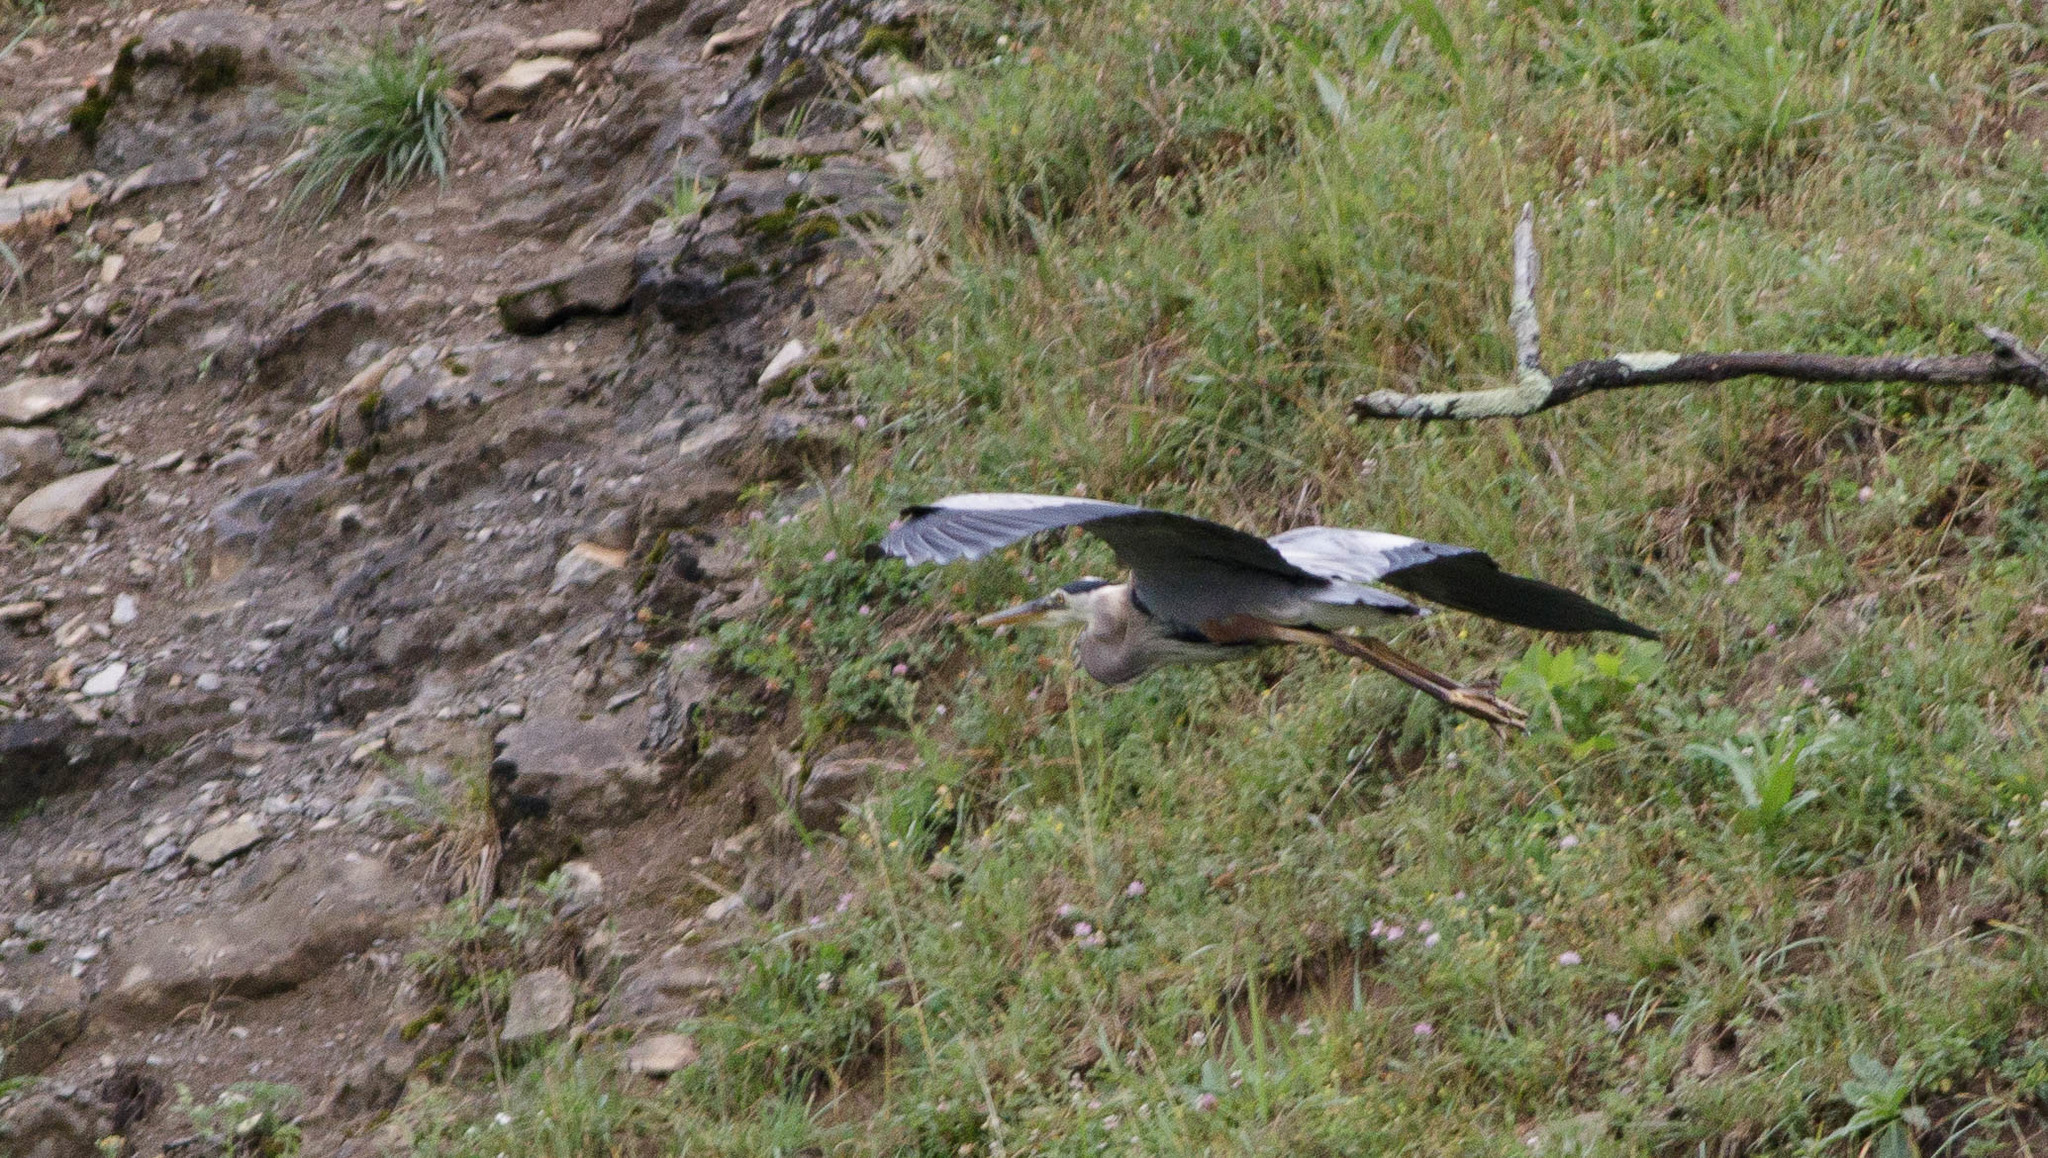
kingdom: Animalia
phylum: Chordata
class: Aves
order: Pelecaniformes
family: Ardeidae
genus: Ardea
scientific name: Ardea herodias
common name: Great blue heron
